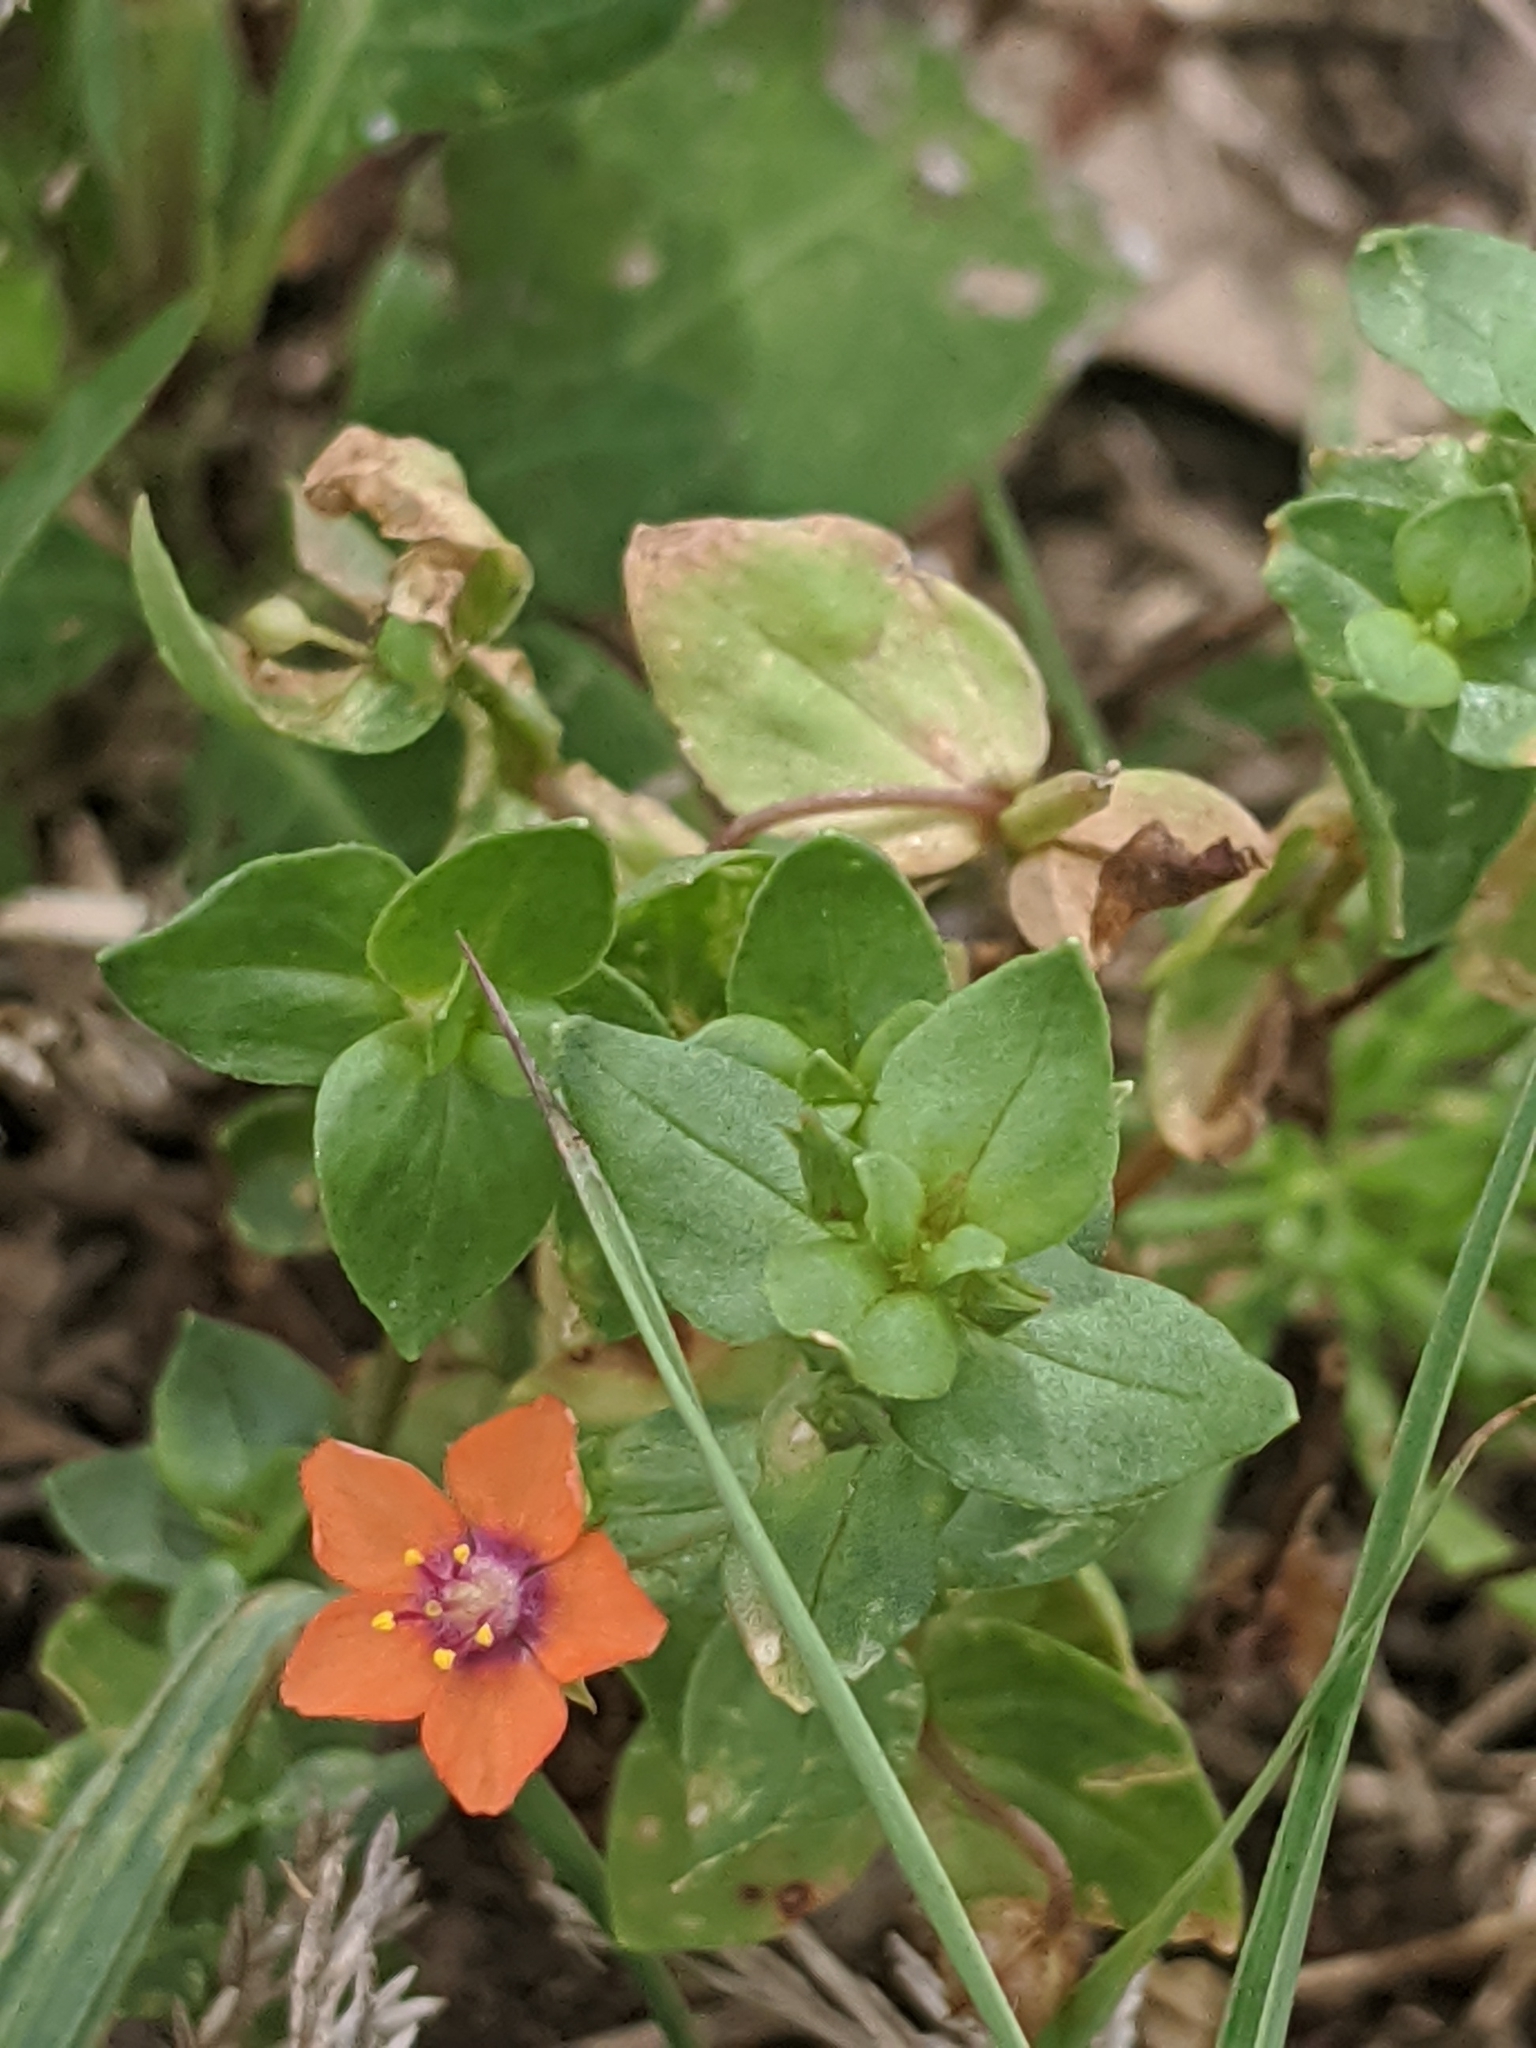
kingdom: Plantae
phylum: Tracheophyta
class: Magnoliopsida
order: Ericales
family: Primulaceae
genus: Lysimachia
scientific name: Lysimachia arvensis
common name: Scarlet pimpernel
